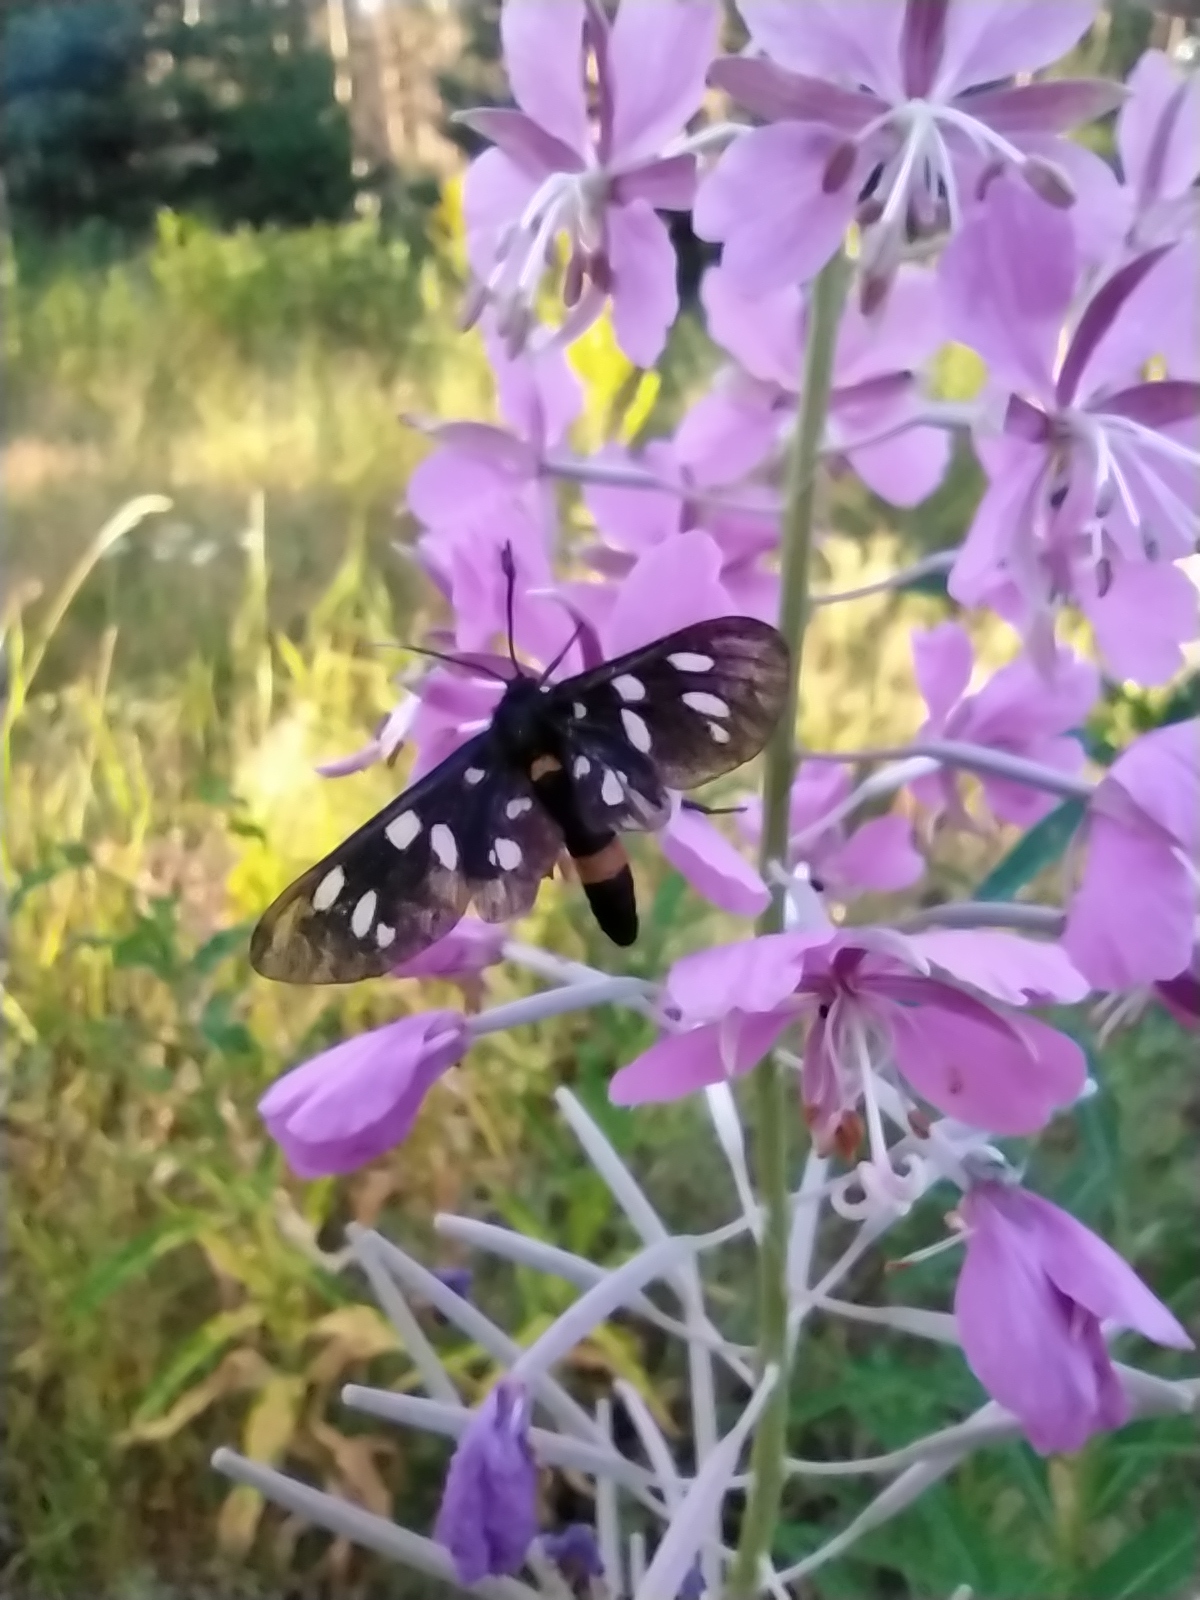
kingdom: Animalia
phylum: Arthropoda
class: Insecta
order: Lepidoptera
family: Erebidae
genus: Amata
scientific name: Amata phegea
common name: Nine-spotted
